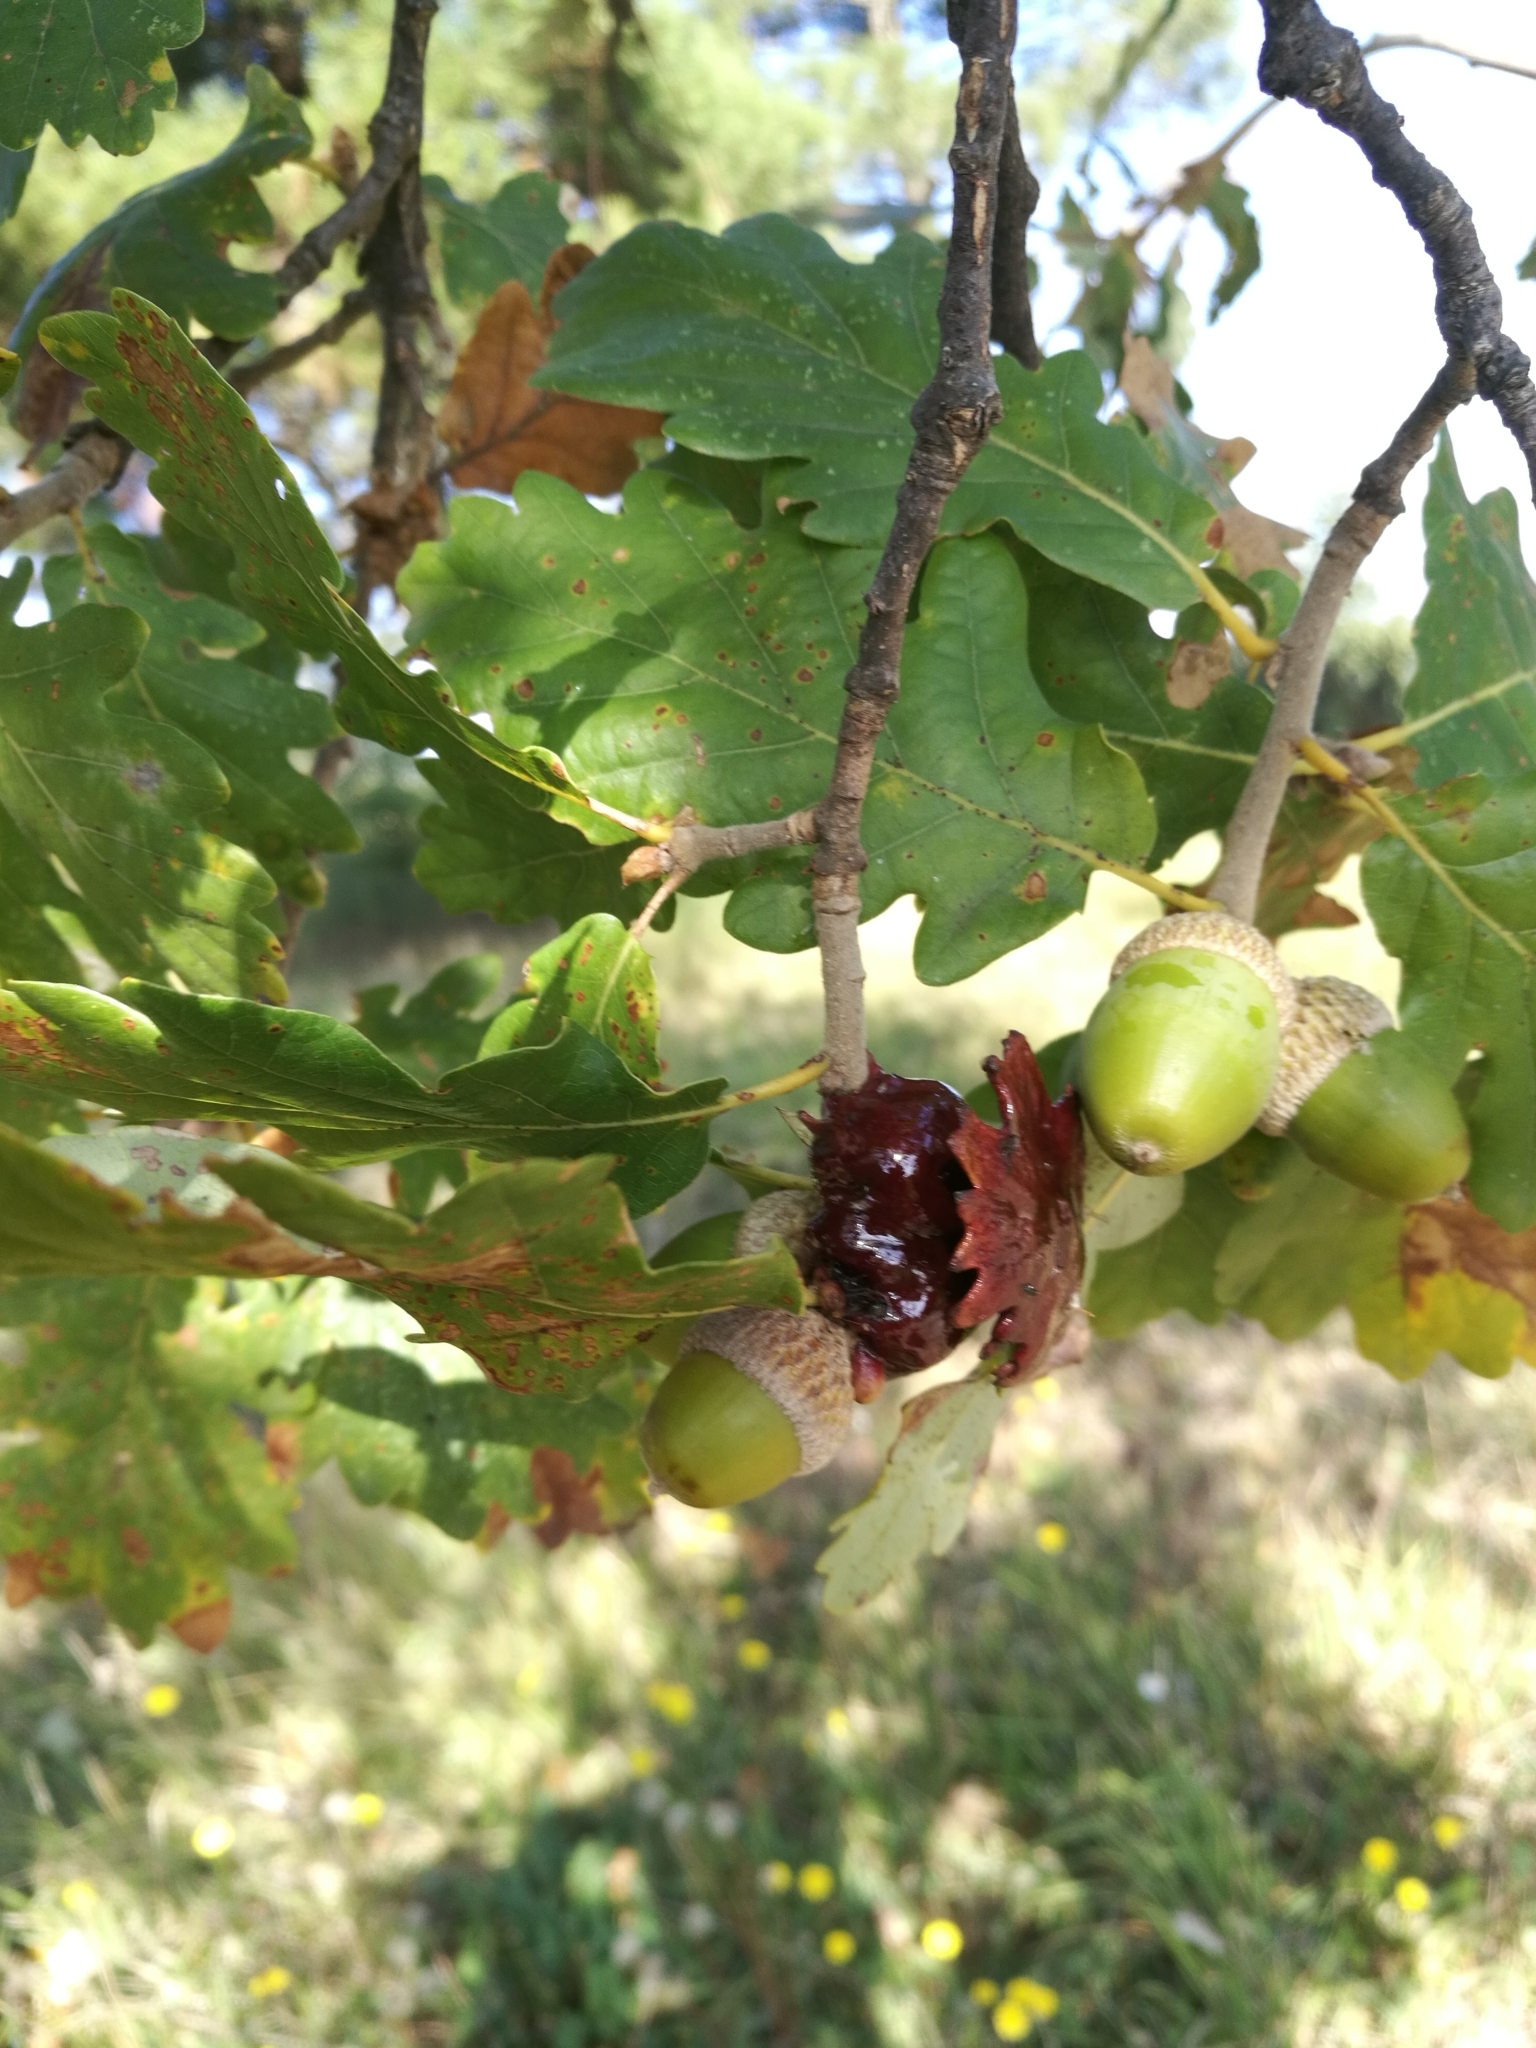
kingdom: Animalia
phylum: Arthropoda
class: Insecta
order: Hymenoptera
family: Cynipidae
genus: Andricus
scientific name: Andricus dentimitratus
